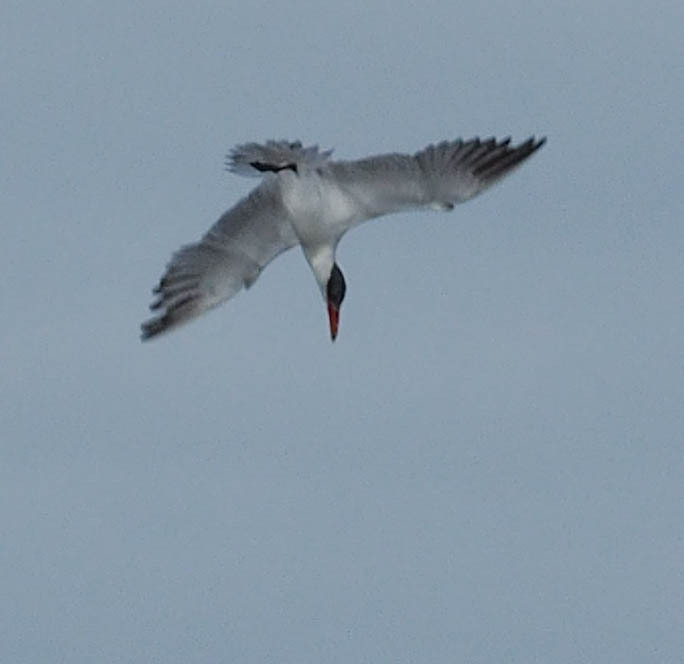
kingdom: Animalia
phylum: Chordata
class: Aves
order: Charadriiformes
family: Laridae
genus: Hydroprogne
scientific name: Hydroprogne caspia
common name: Caspian tern
